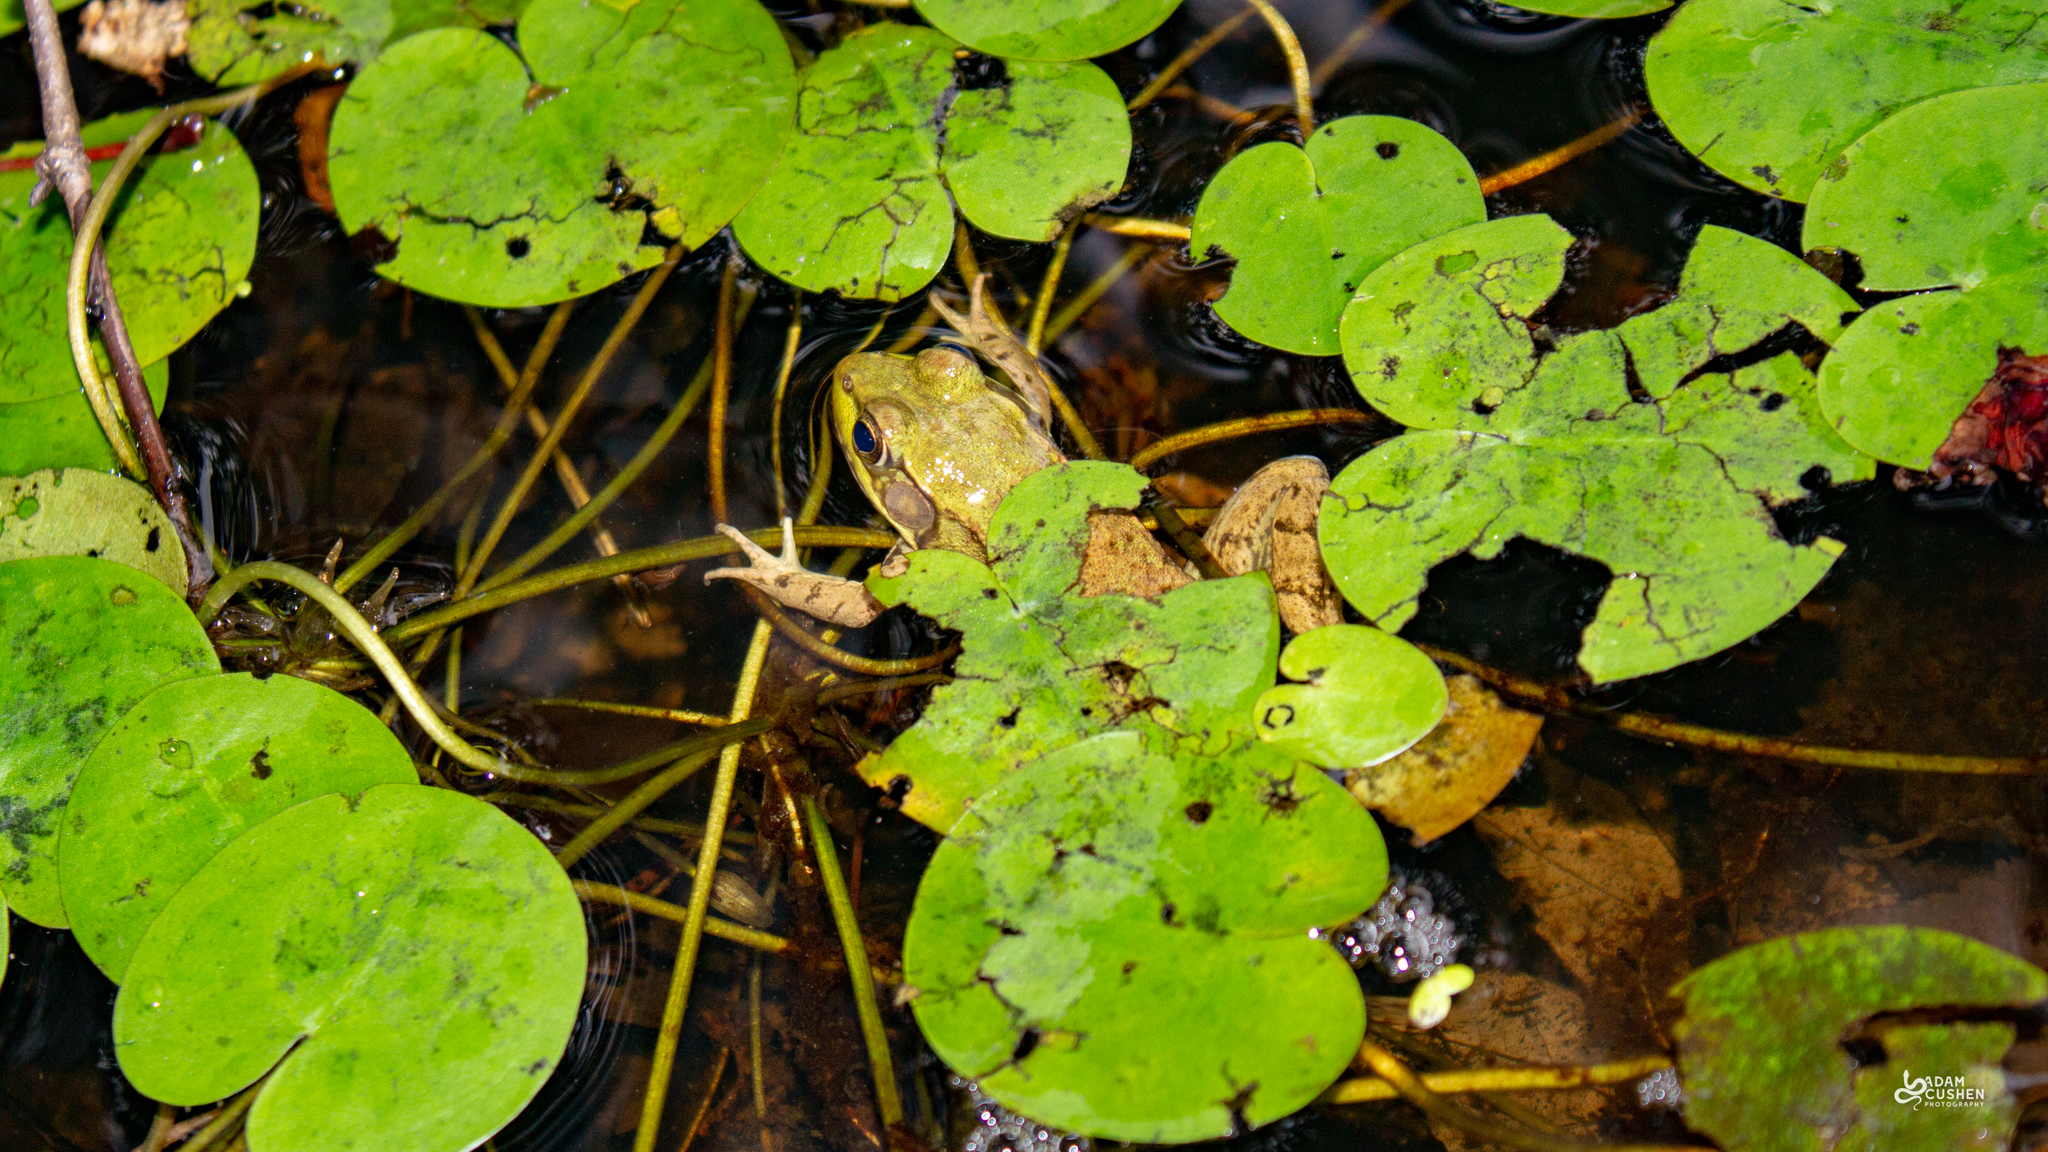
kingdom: Animalia
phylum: Chordata
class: Amphibia
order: Anura
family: Ranidae
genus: Lithobates
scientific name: Lithobates clamitans
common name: Green frog
